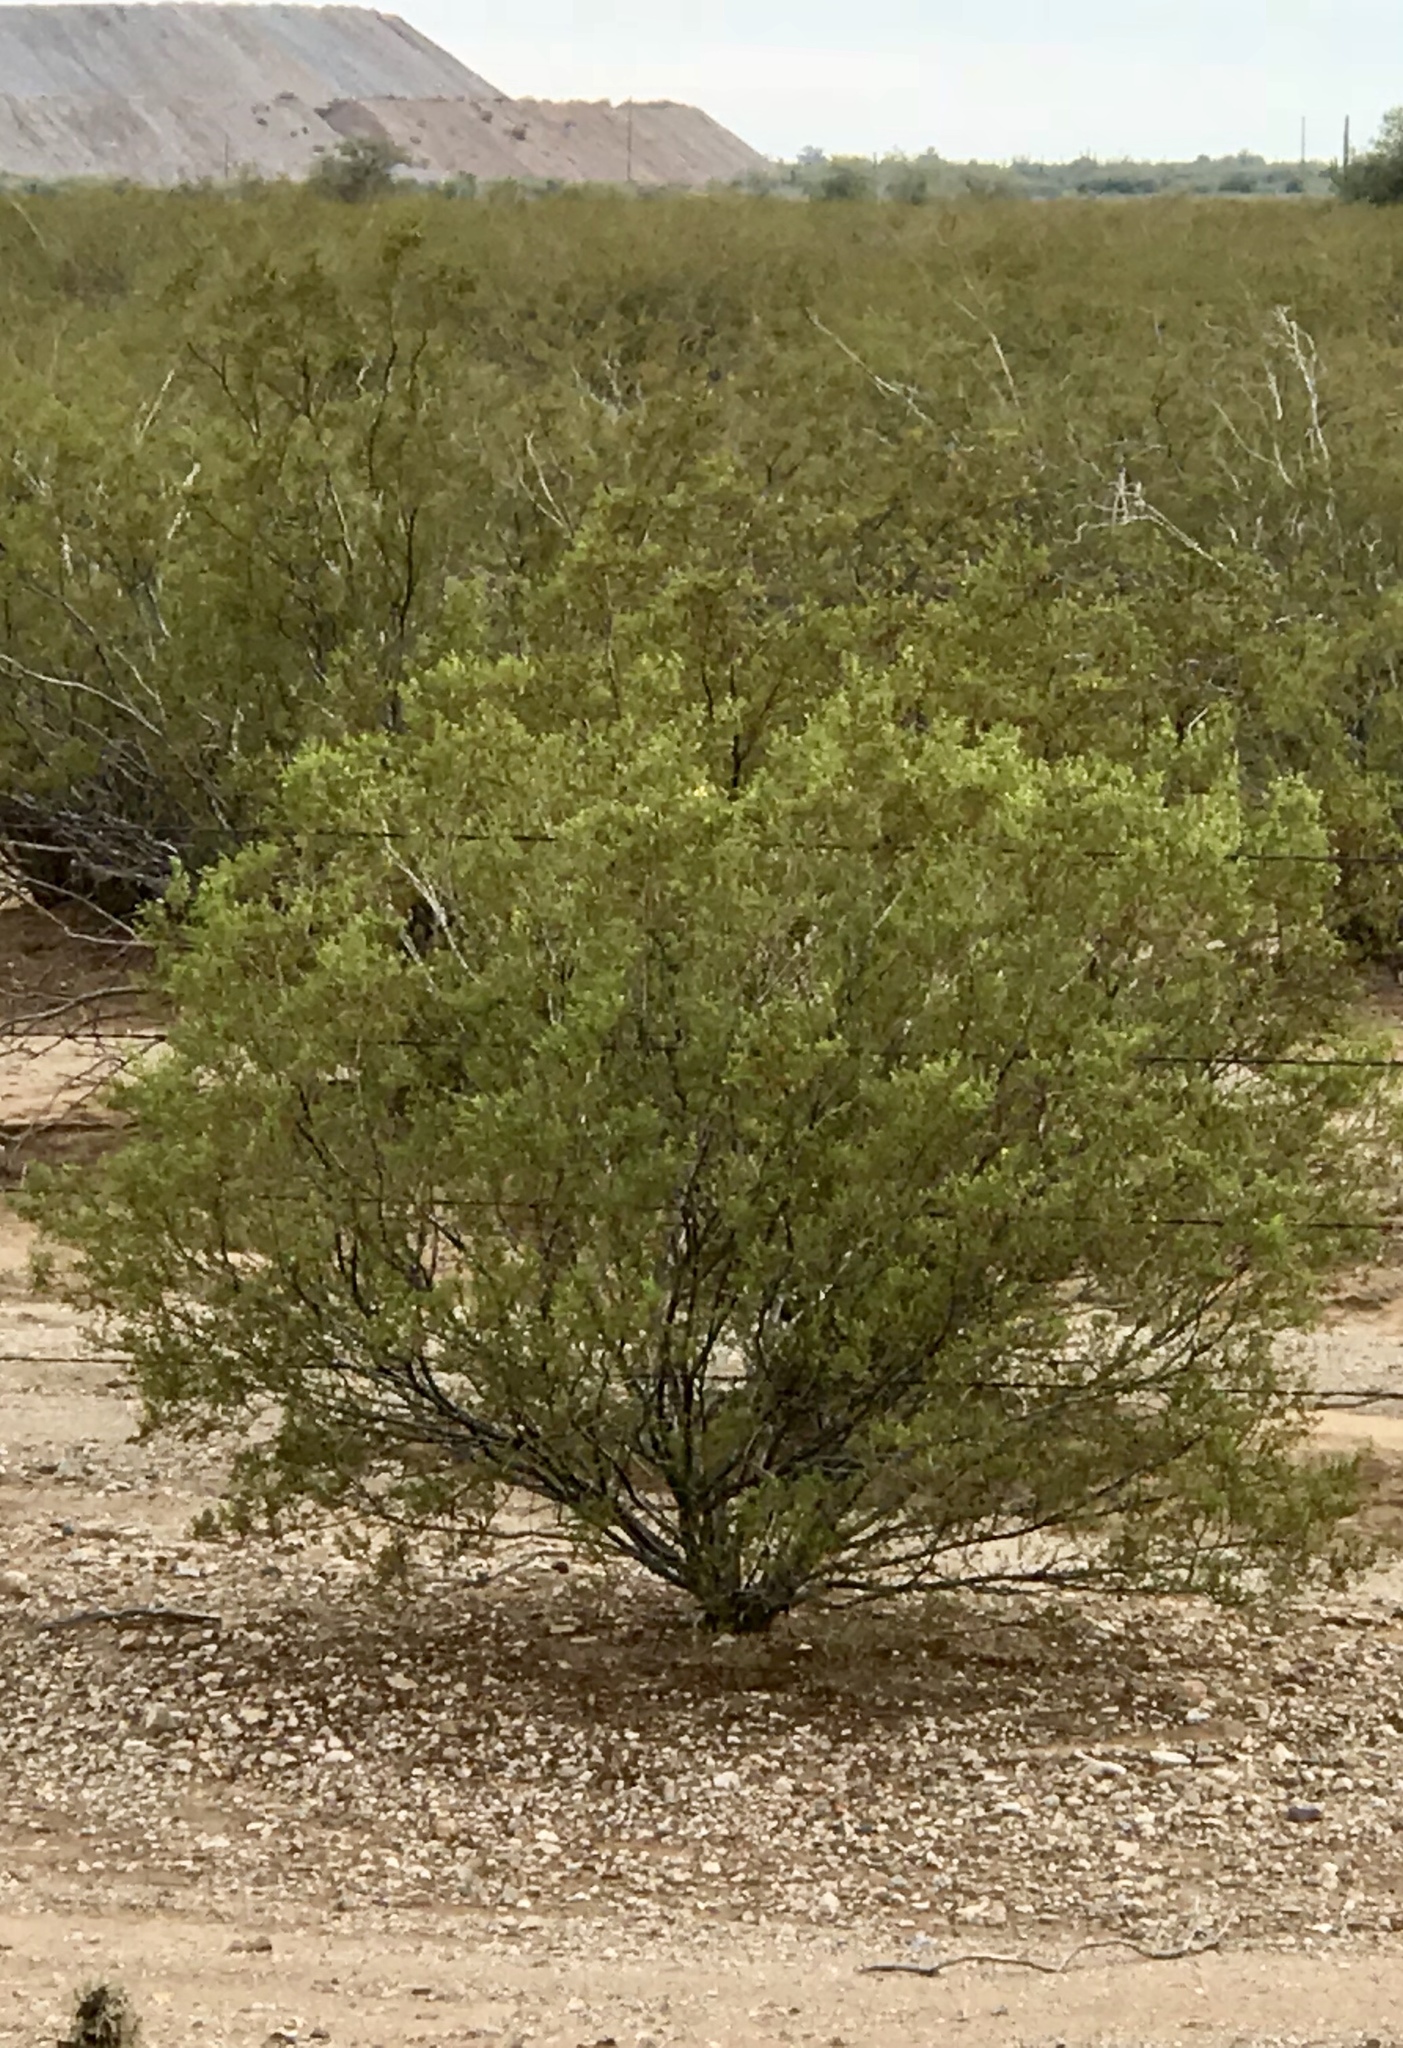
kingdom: Plantae
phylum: Tracheophyta
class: Magnoliopsida
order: Zygophyllales
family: Zygophyllaceae
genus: Larrea
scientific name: Larrea tridentata
